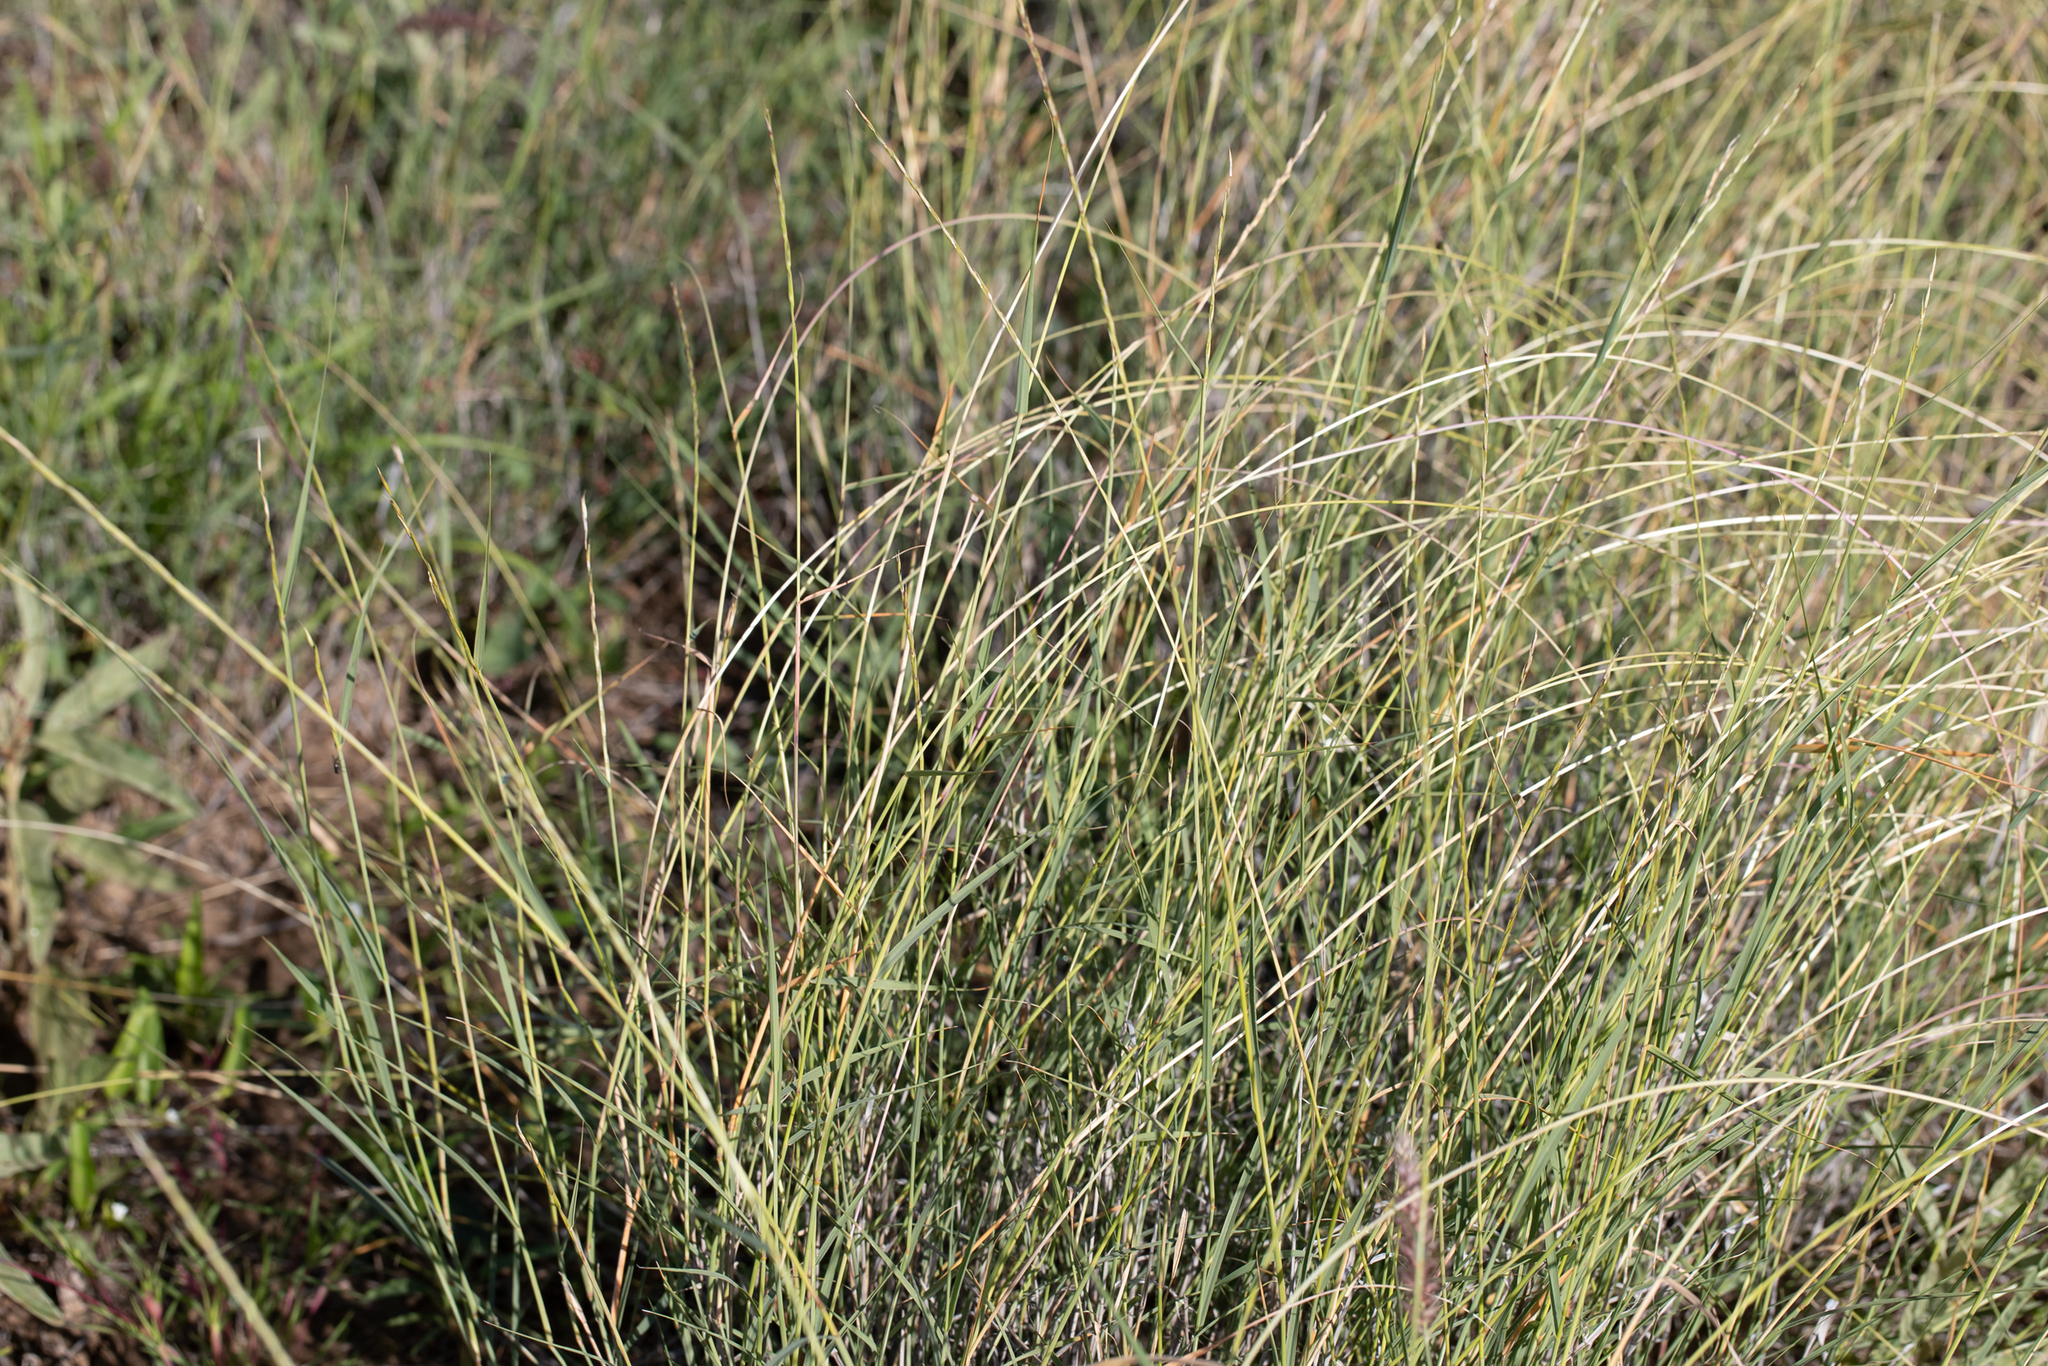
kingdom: Plantae
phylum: Tracheophyta
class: Liliopsida
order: Poales
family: Poaceae
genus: Astrebla
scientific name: Astrebla elymoides
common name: Hoop mitchell grass
